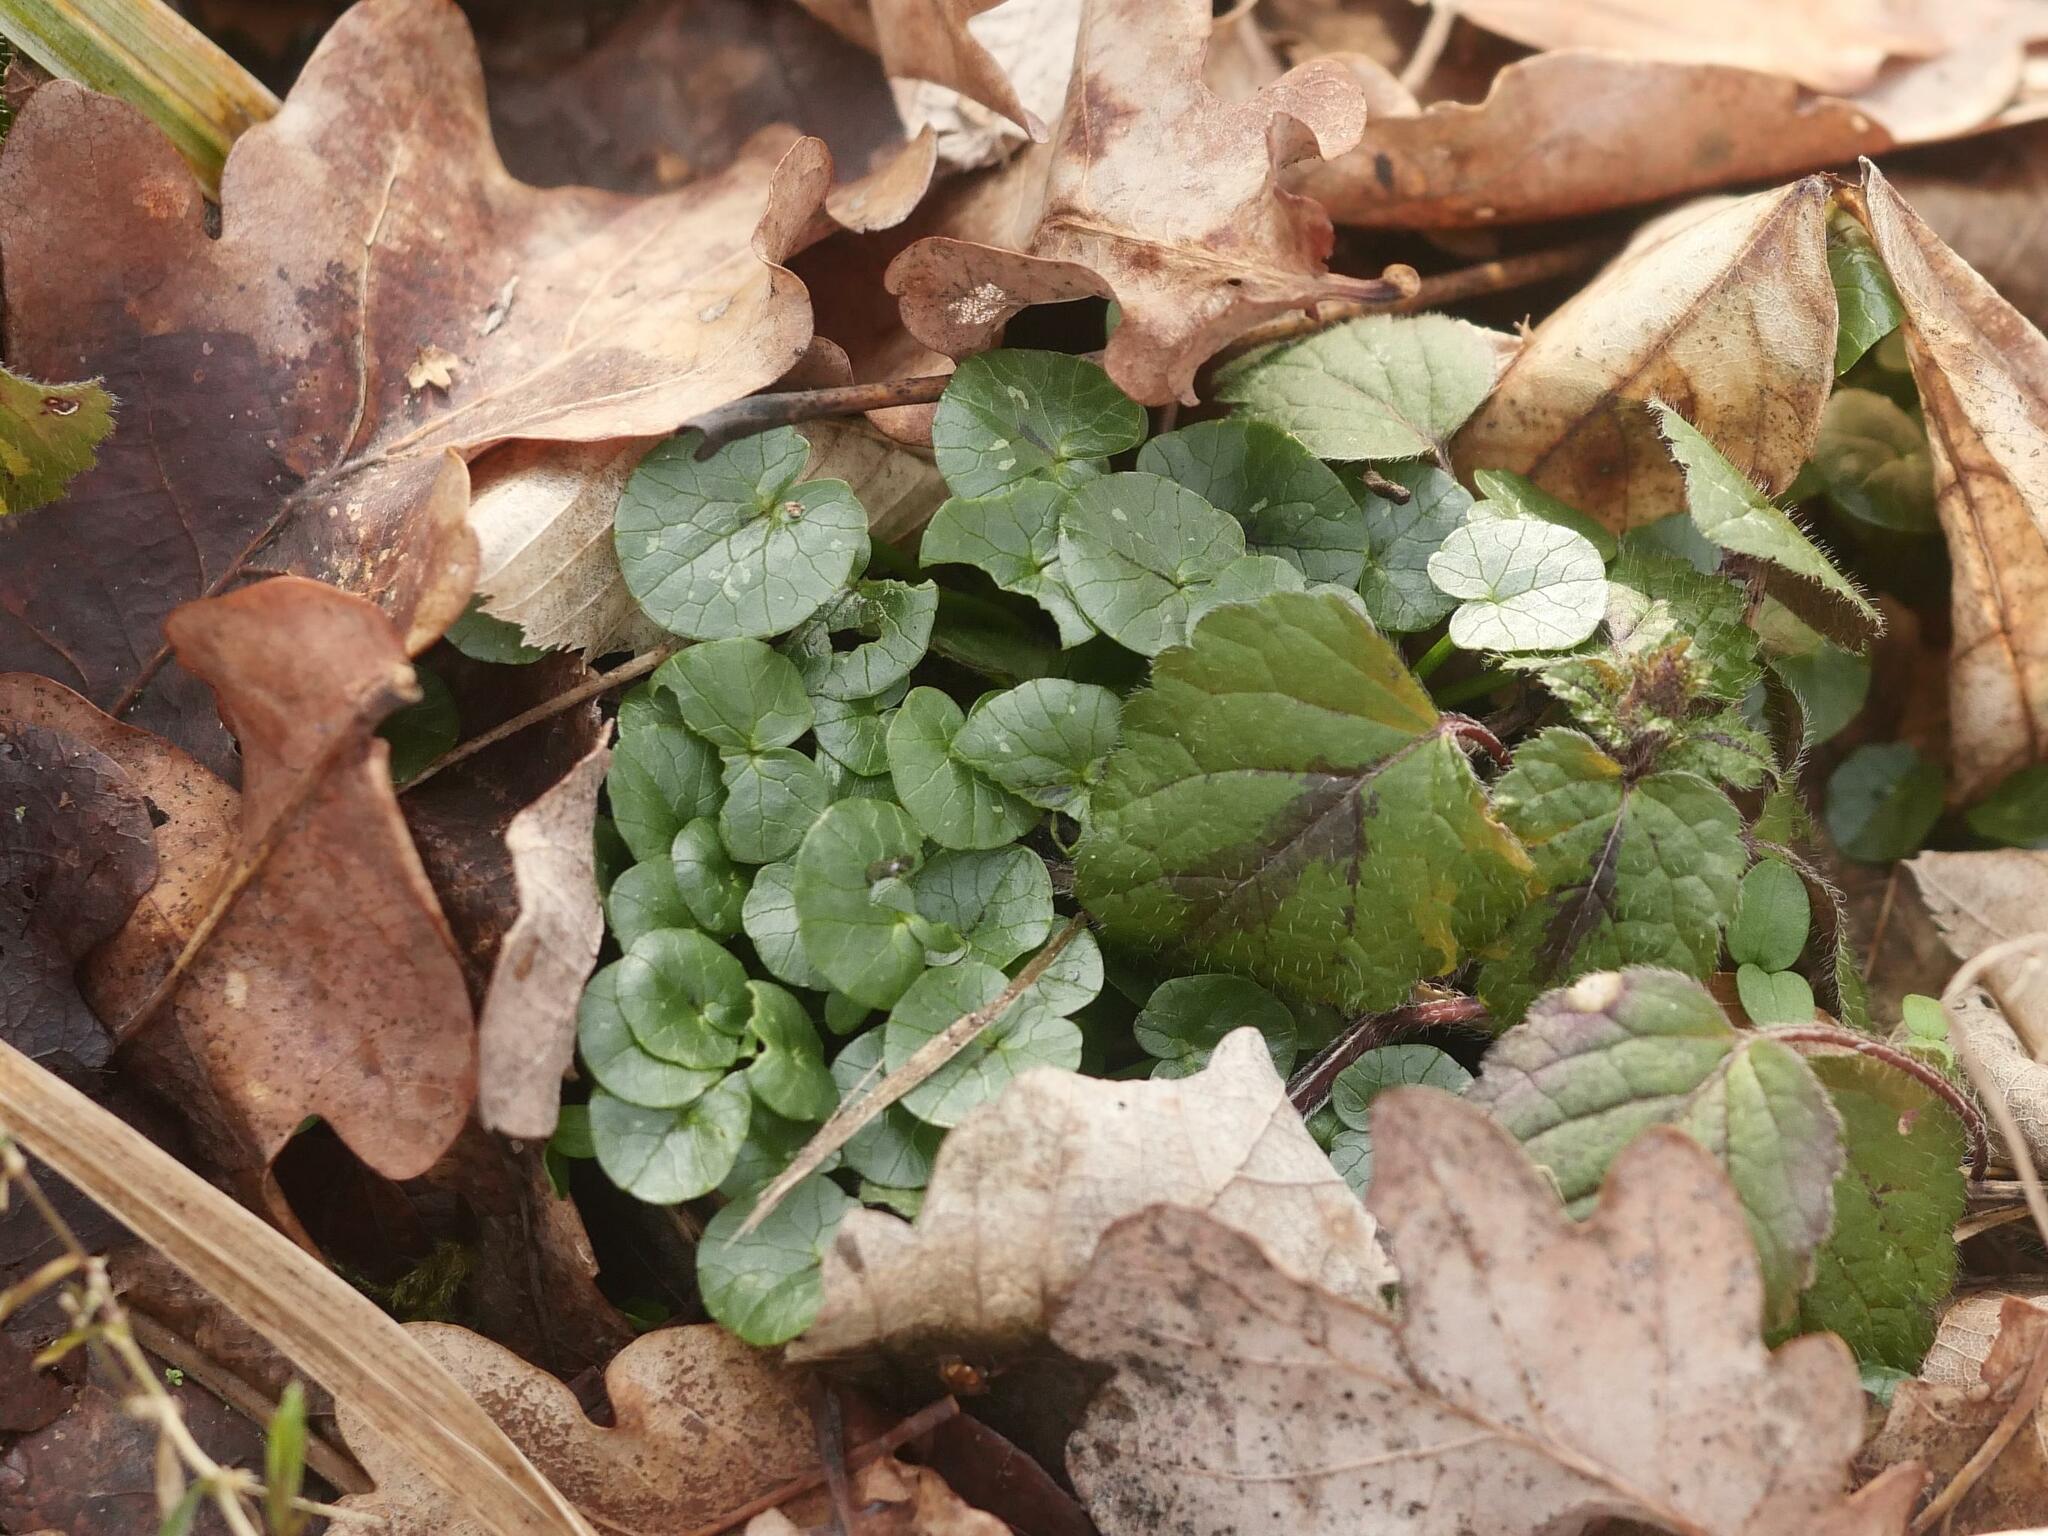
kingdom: Plantae
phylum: Tracheophyta
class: Magnoliopsida
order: Ranunculales
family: Ranunculaceae
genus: Ficaria
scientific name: Ficaria verna
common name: Lesser celandine
